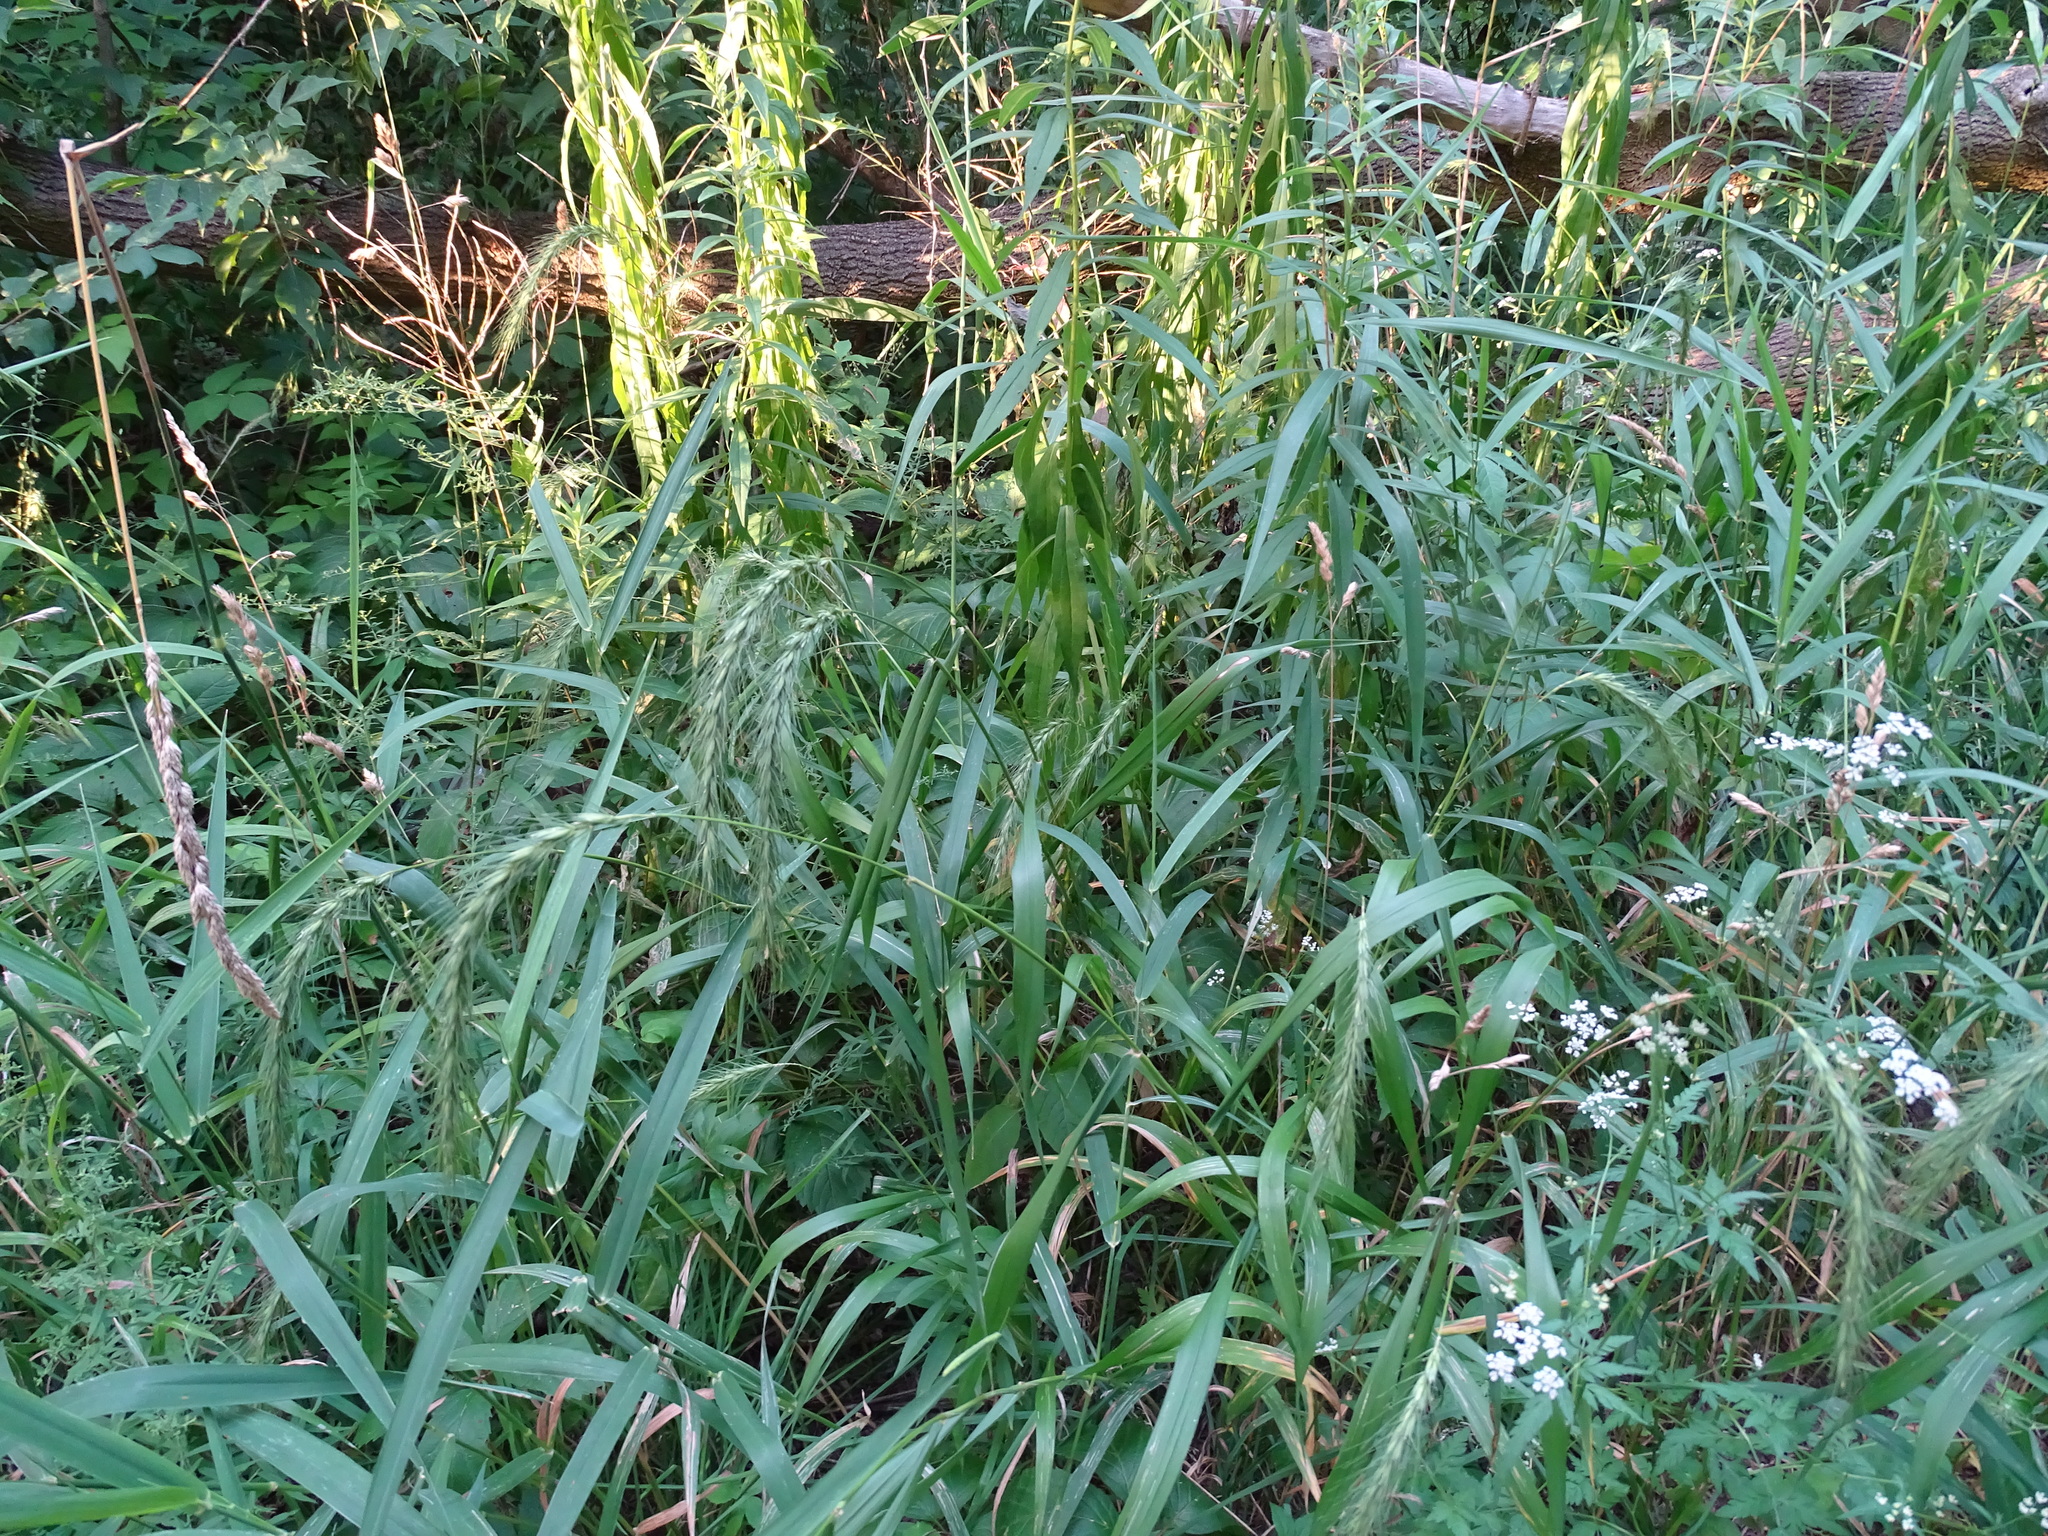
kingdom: Plantae
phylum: Tracheophyta
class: Liliopsida
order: Poales
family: Poaceae
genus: Elymus
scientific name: Elymus riparius
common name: Eastern riverbank wild rye
